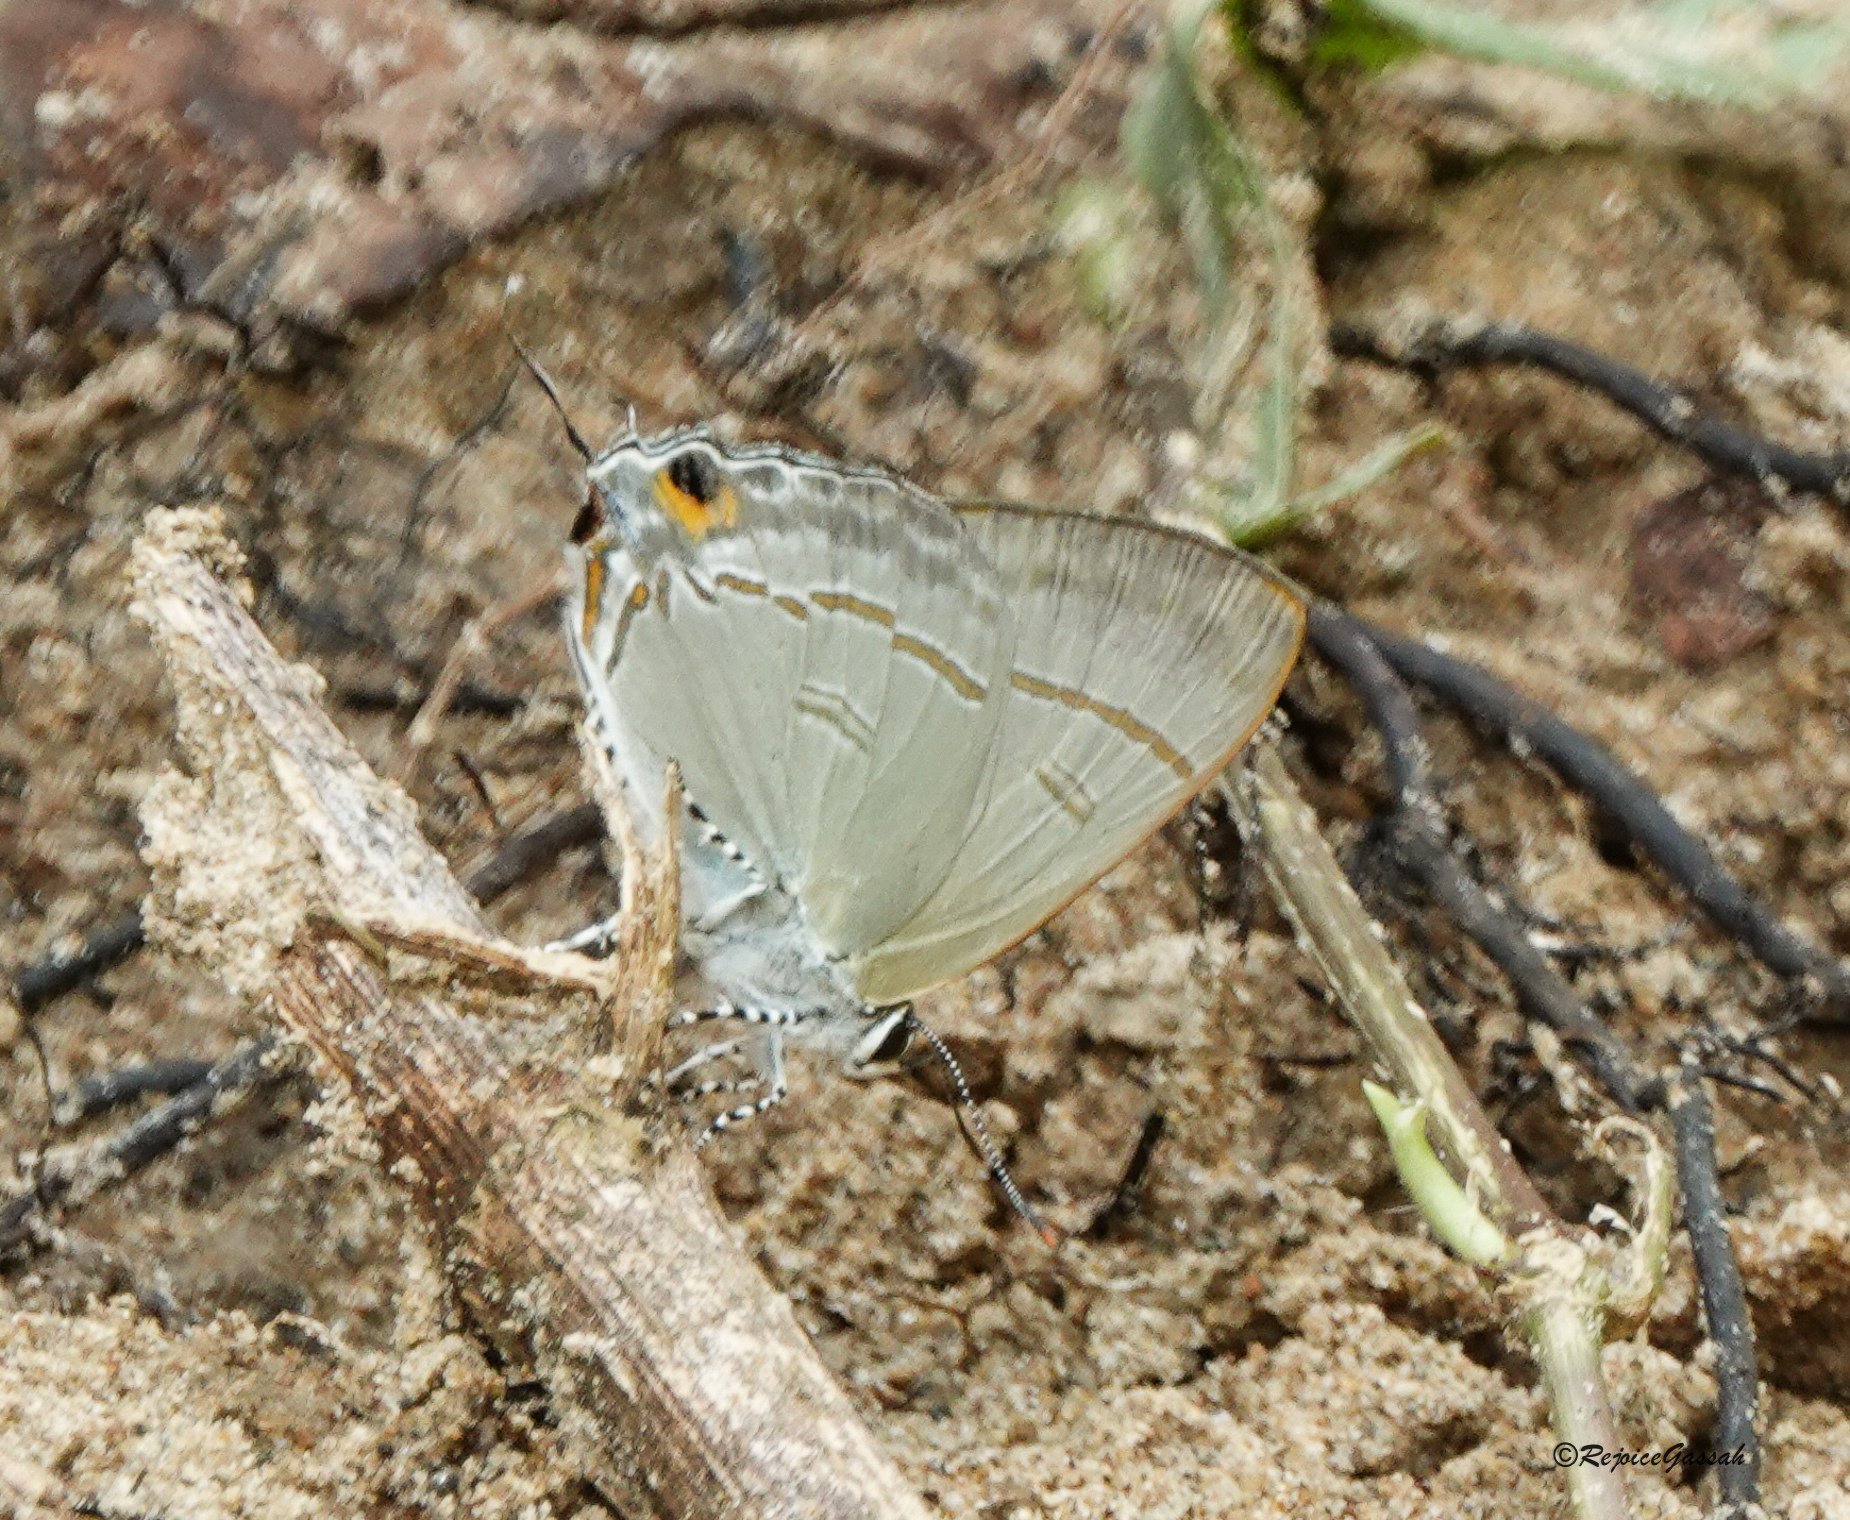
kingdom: Animalia
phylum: Arthropoda
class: Insecta
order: Lepidoptera
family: Lycaenidae
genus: Hypolycaena
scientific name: Hypolycaena erylus
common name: Common tit
